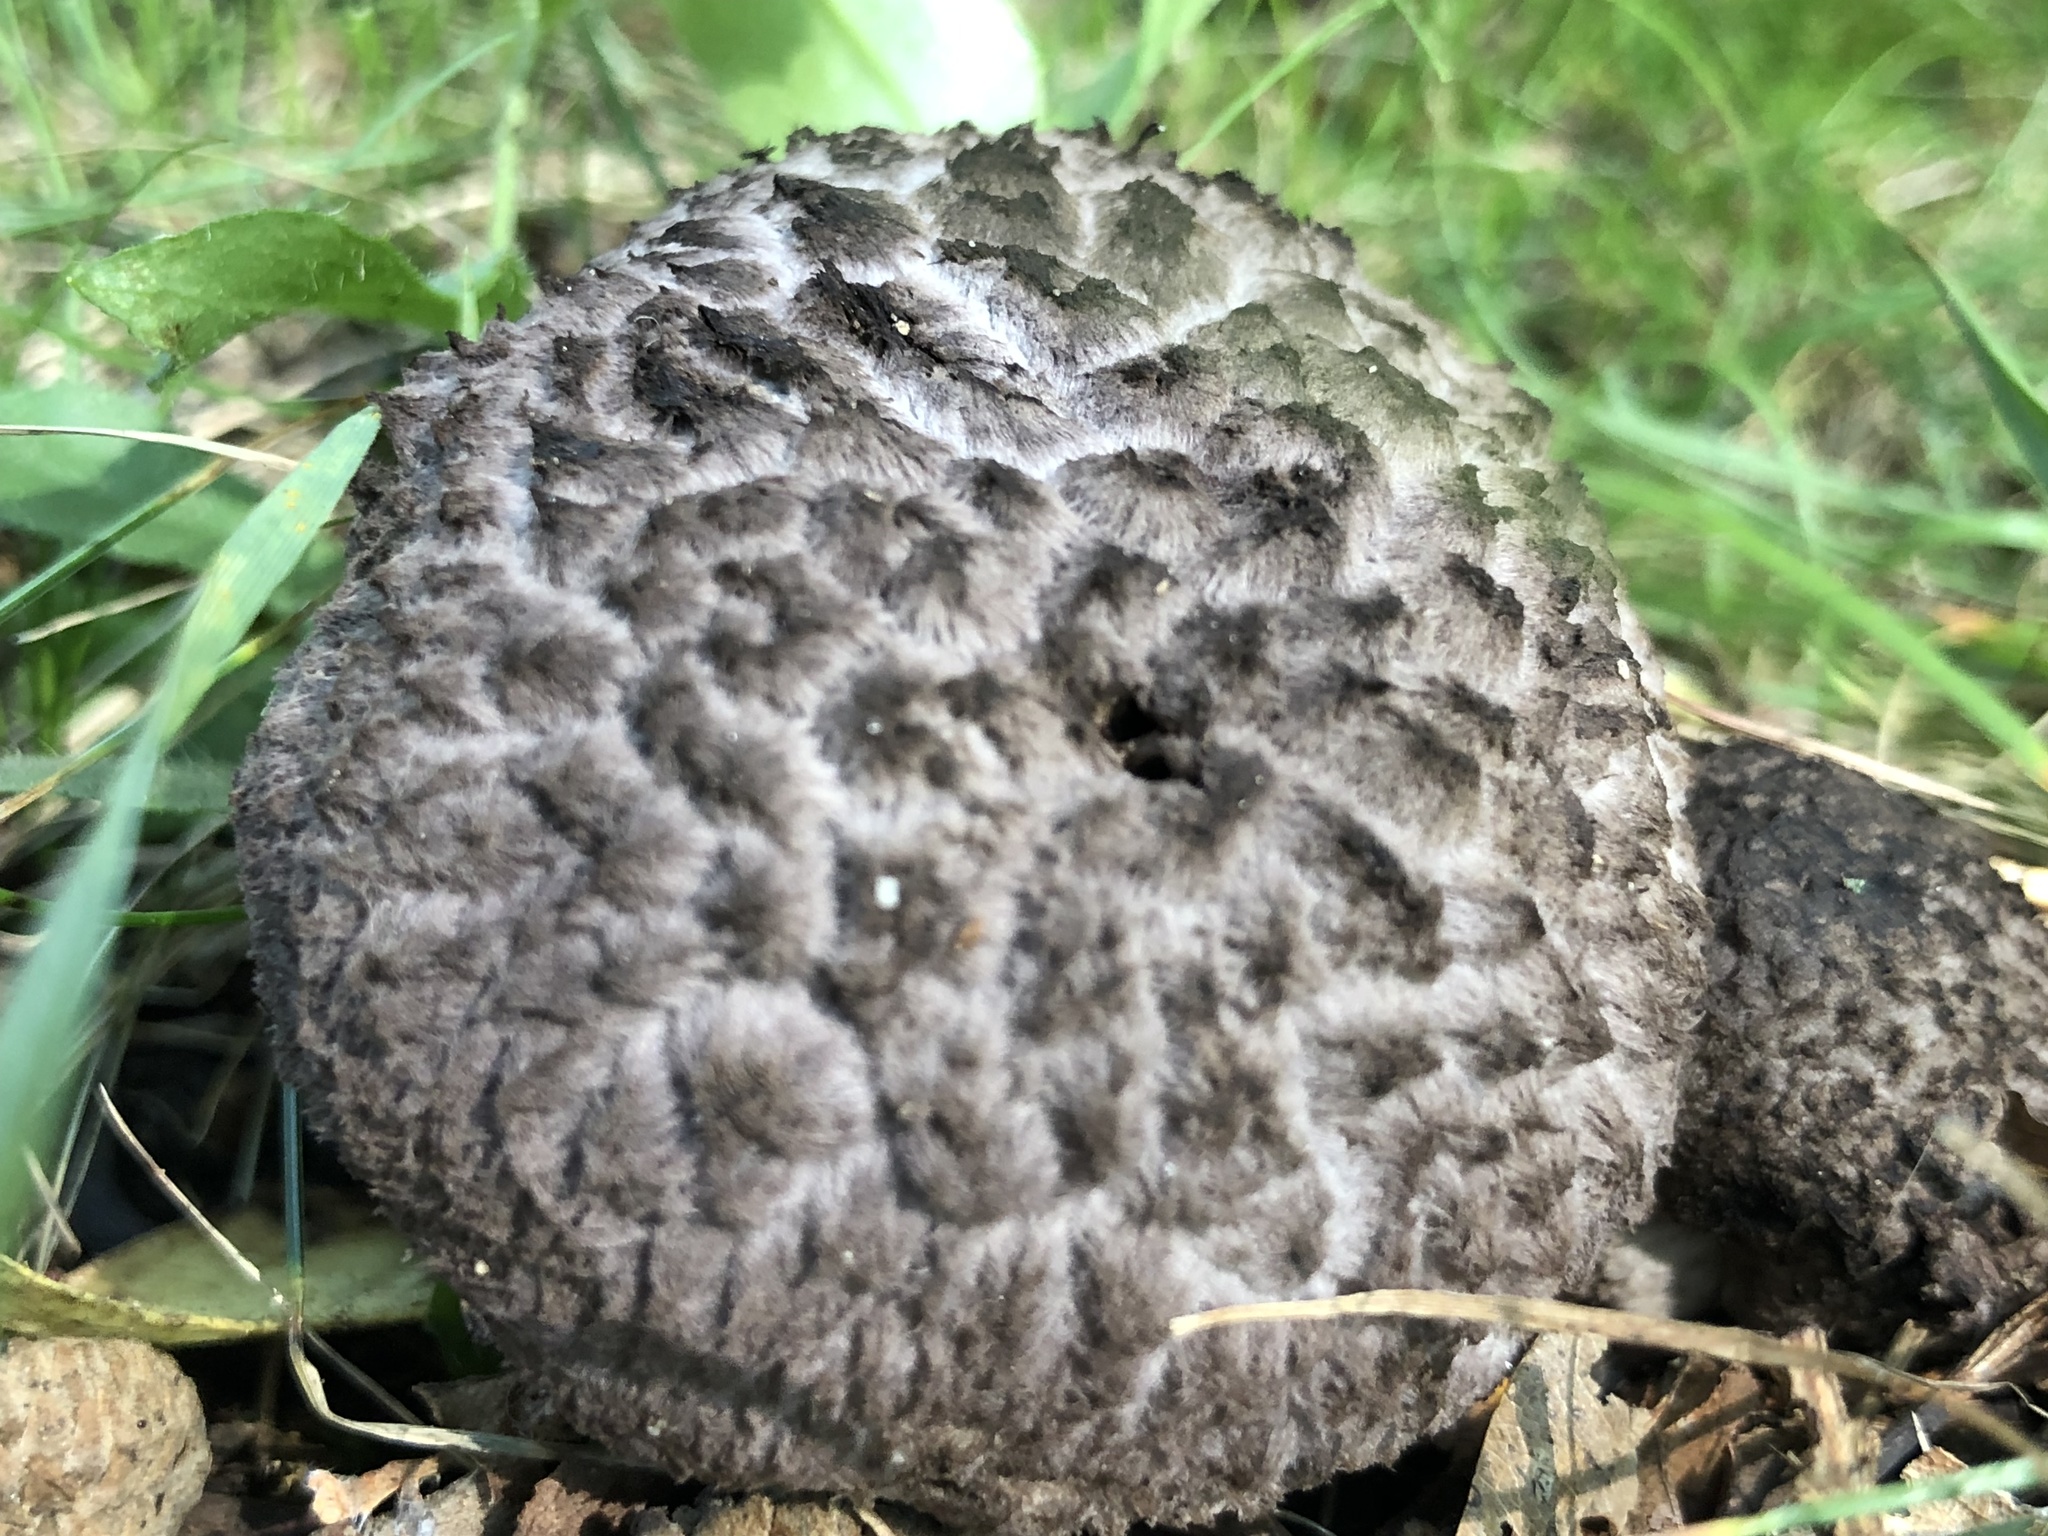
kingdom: Fungi
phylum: Basidiomycota
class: Agaricomycetes
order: Boletales
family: Boletaceae
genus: Strobilomyces
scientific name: Strobilomyces strobilaceus
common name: Old man of the woods
